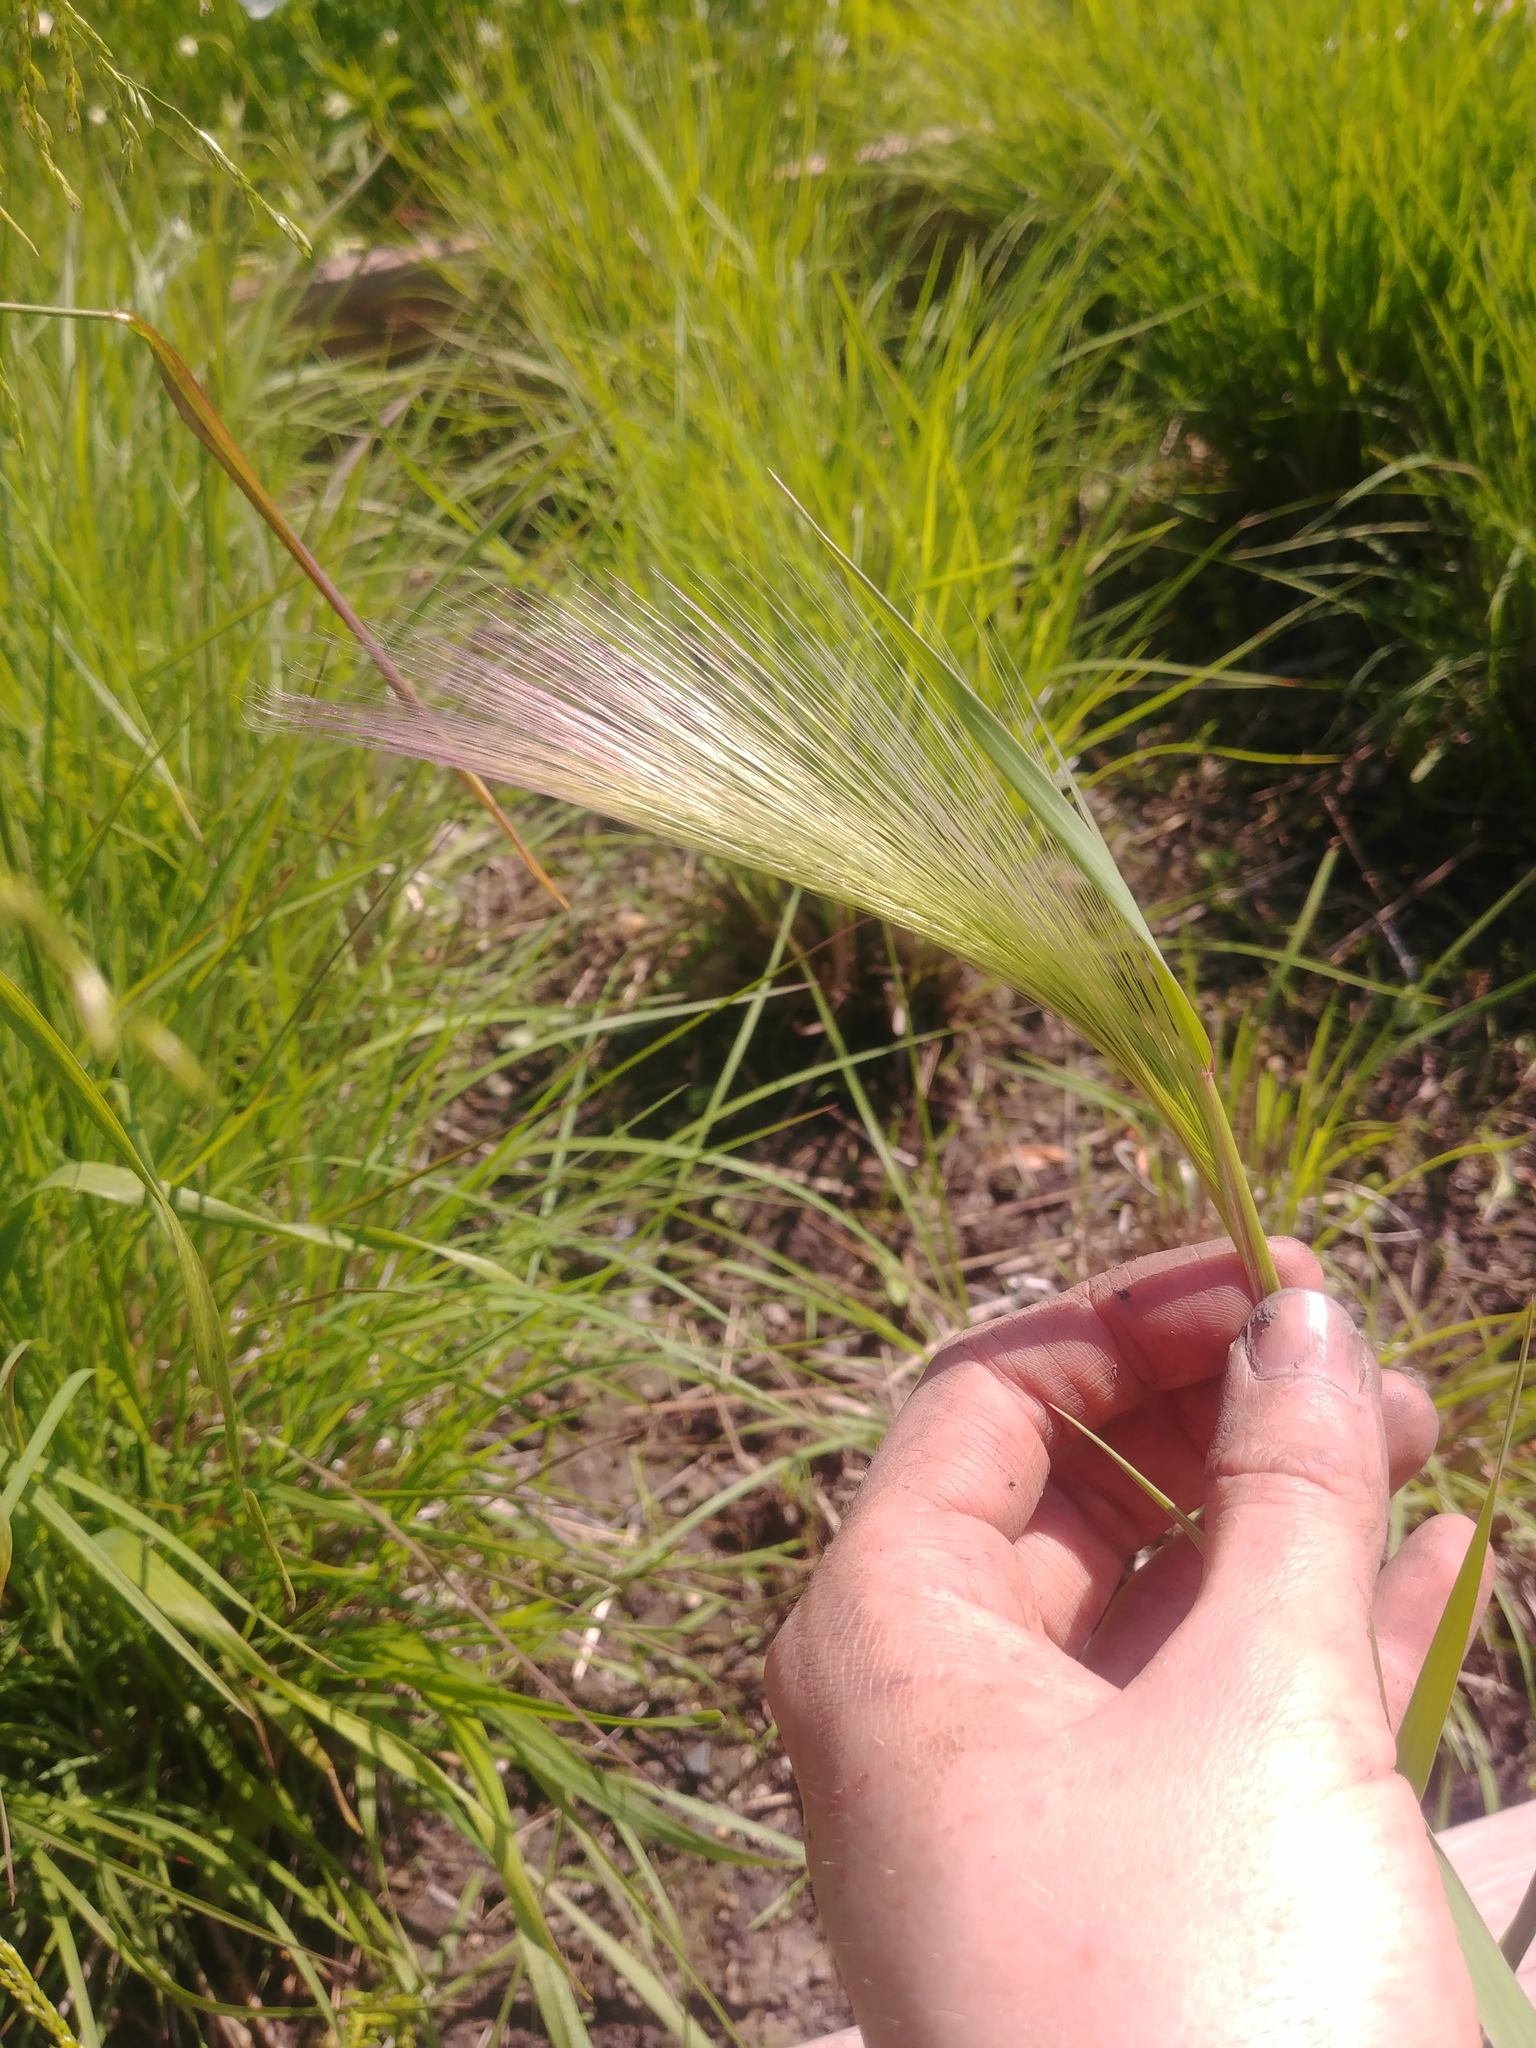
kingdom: Plantae
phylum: Tracheophyta
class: Liliopsida
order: Poales
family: Poaceae
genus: Hordeum
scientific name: Hordeum jubatum
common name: Foxtail barley
